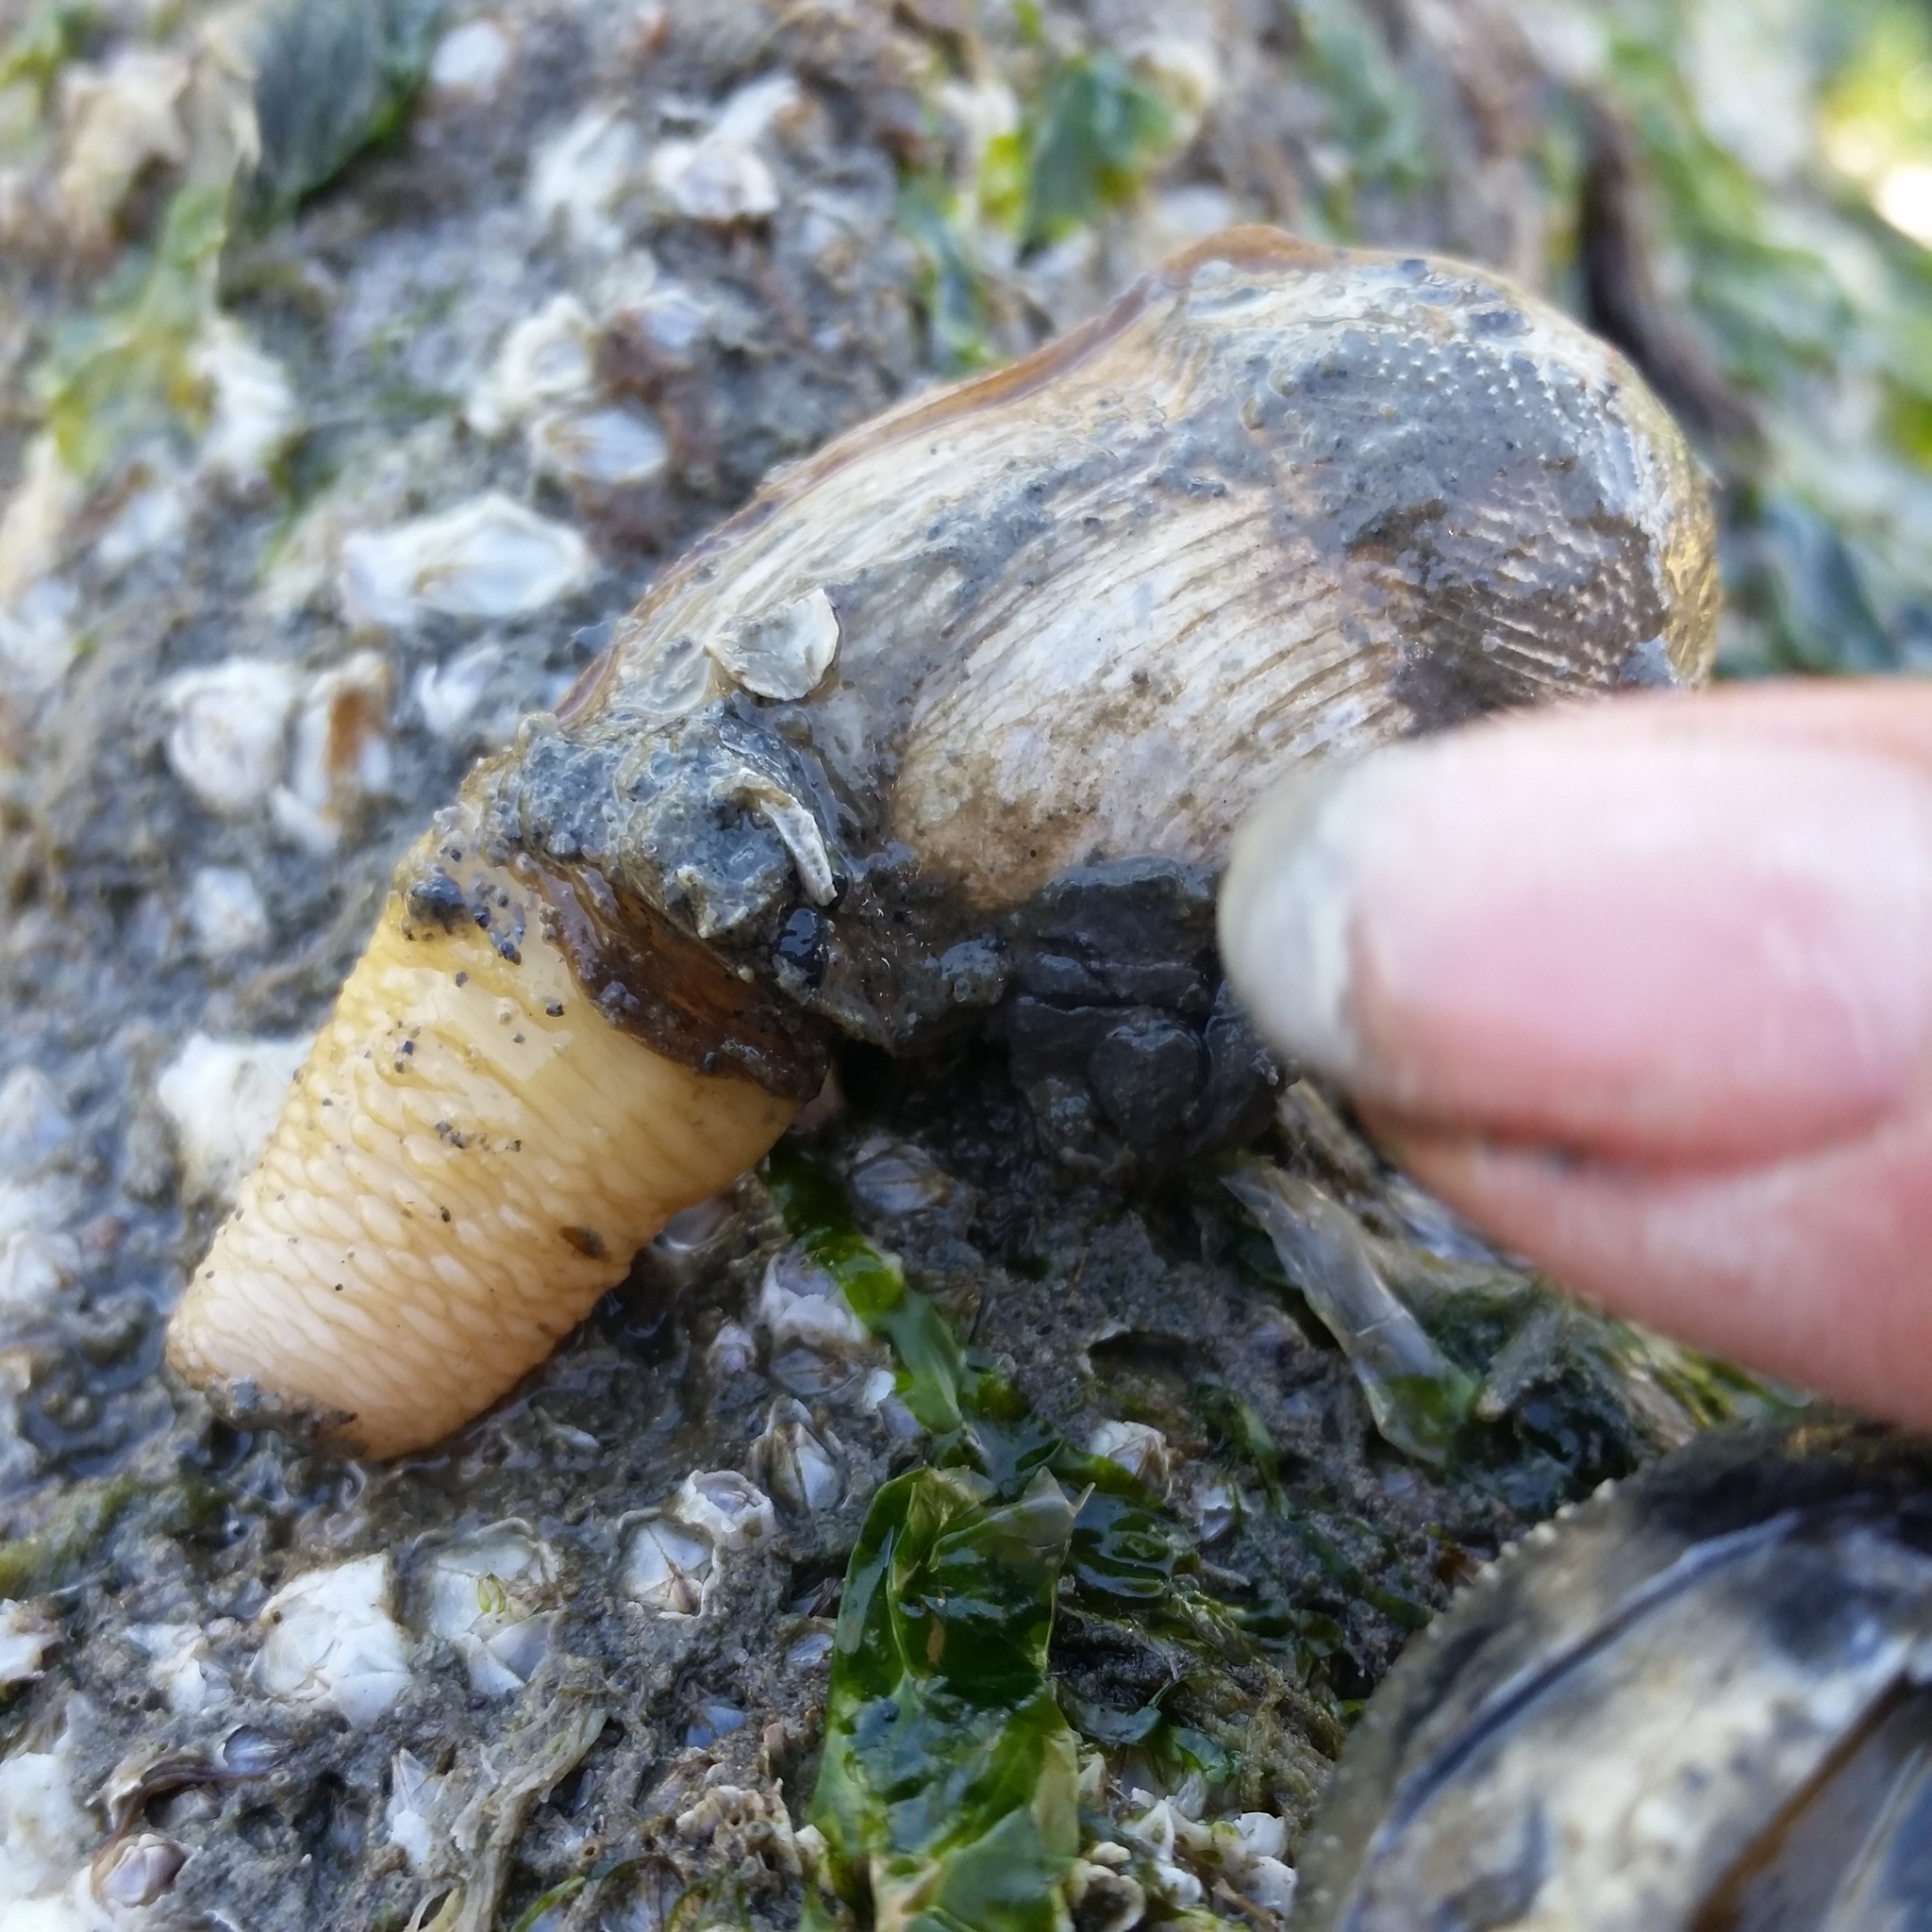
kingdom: Animalia
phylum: Mollusca
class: Bivalvia
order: Myida
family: Pholadidae
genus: Zirfaea
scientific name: Zirfaea pilsbryi
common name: Rough piddock
